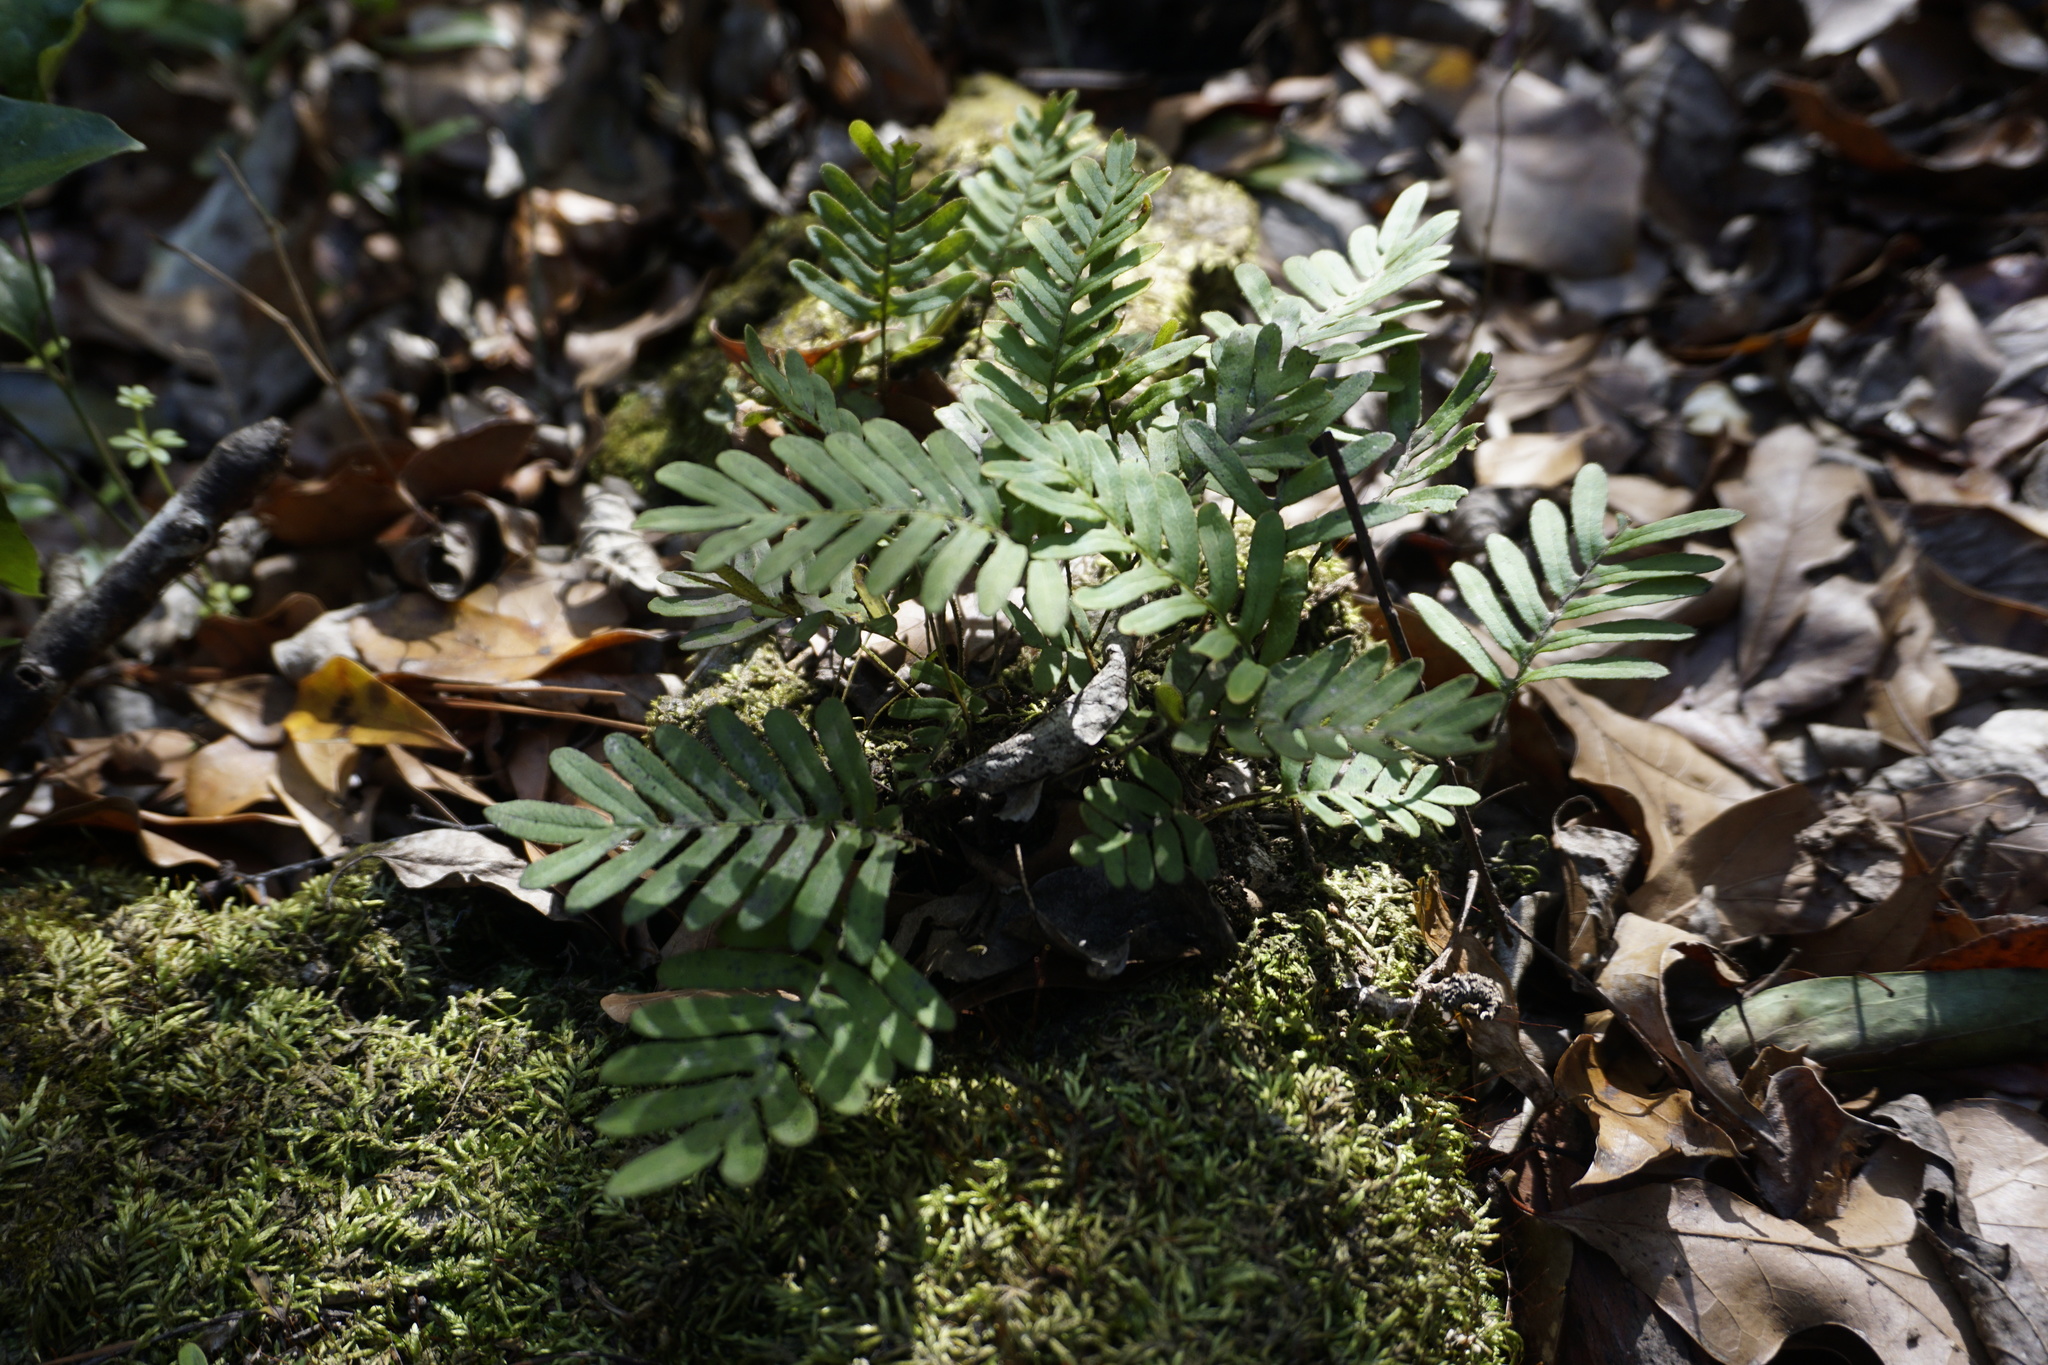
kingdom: Plantae
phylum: Tracheophyta
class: Polypodiopsida
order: Polypodiales
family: Polypodiaceae
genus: Pleopeltis
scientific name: Pleopeltis michauxiana
